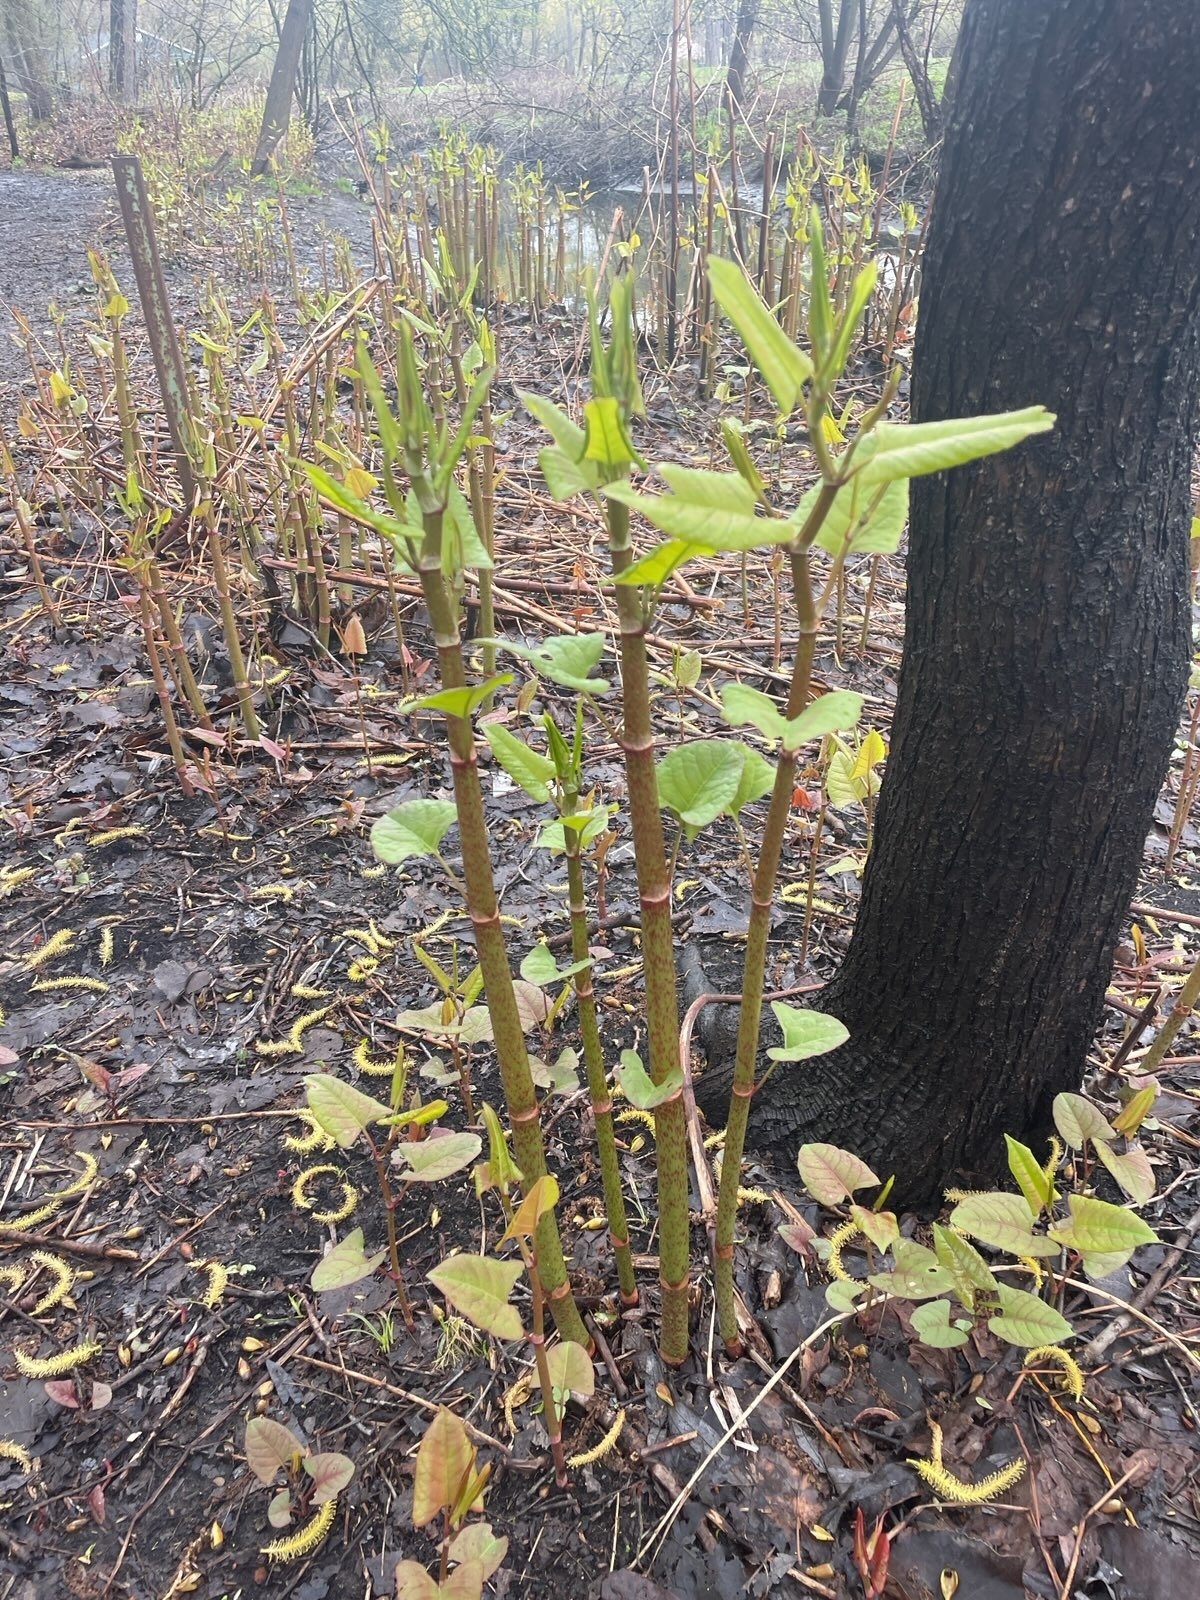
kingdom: Plantae
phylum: Tracheophyta
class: Magnoliopsida
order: Caryophyllales
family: Polygonaceae
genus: Reynoutria
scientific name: Reynoutria japonica
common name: Japanese knotweed
